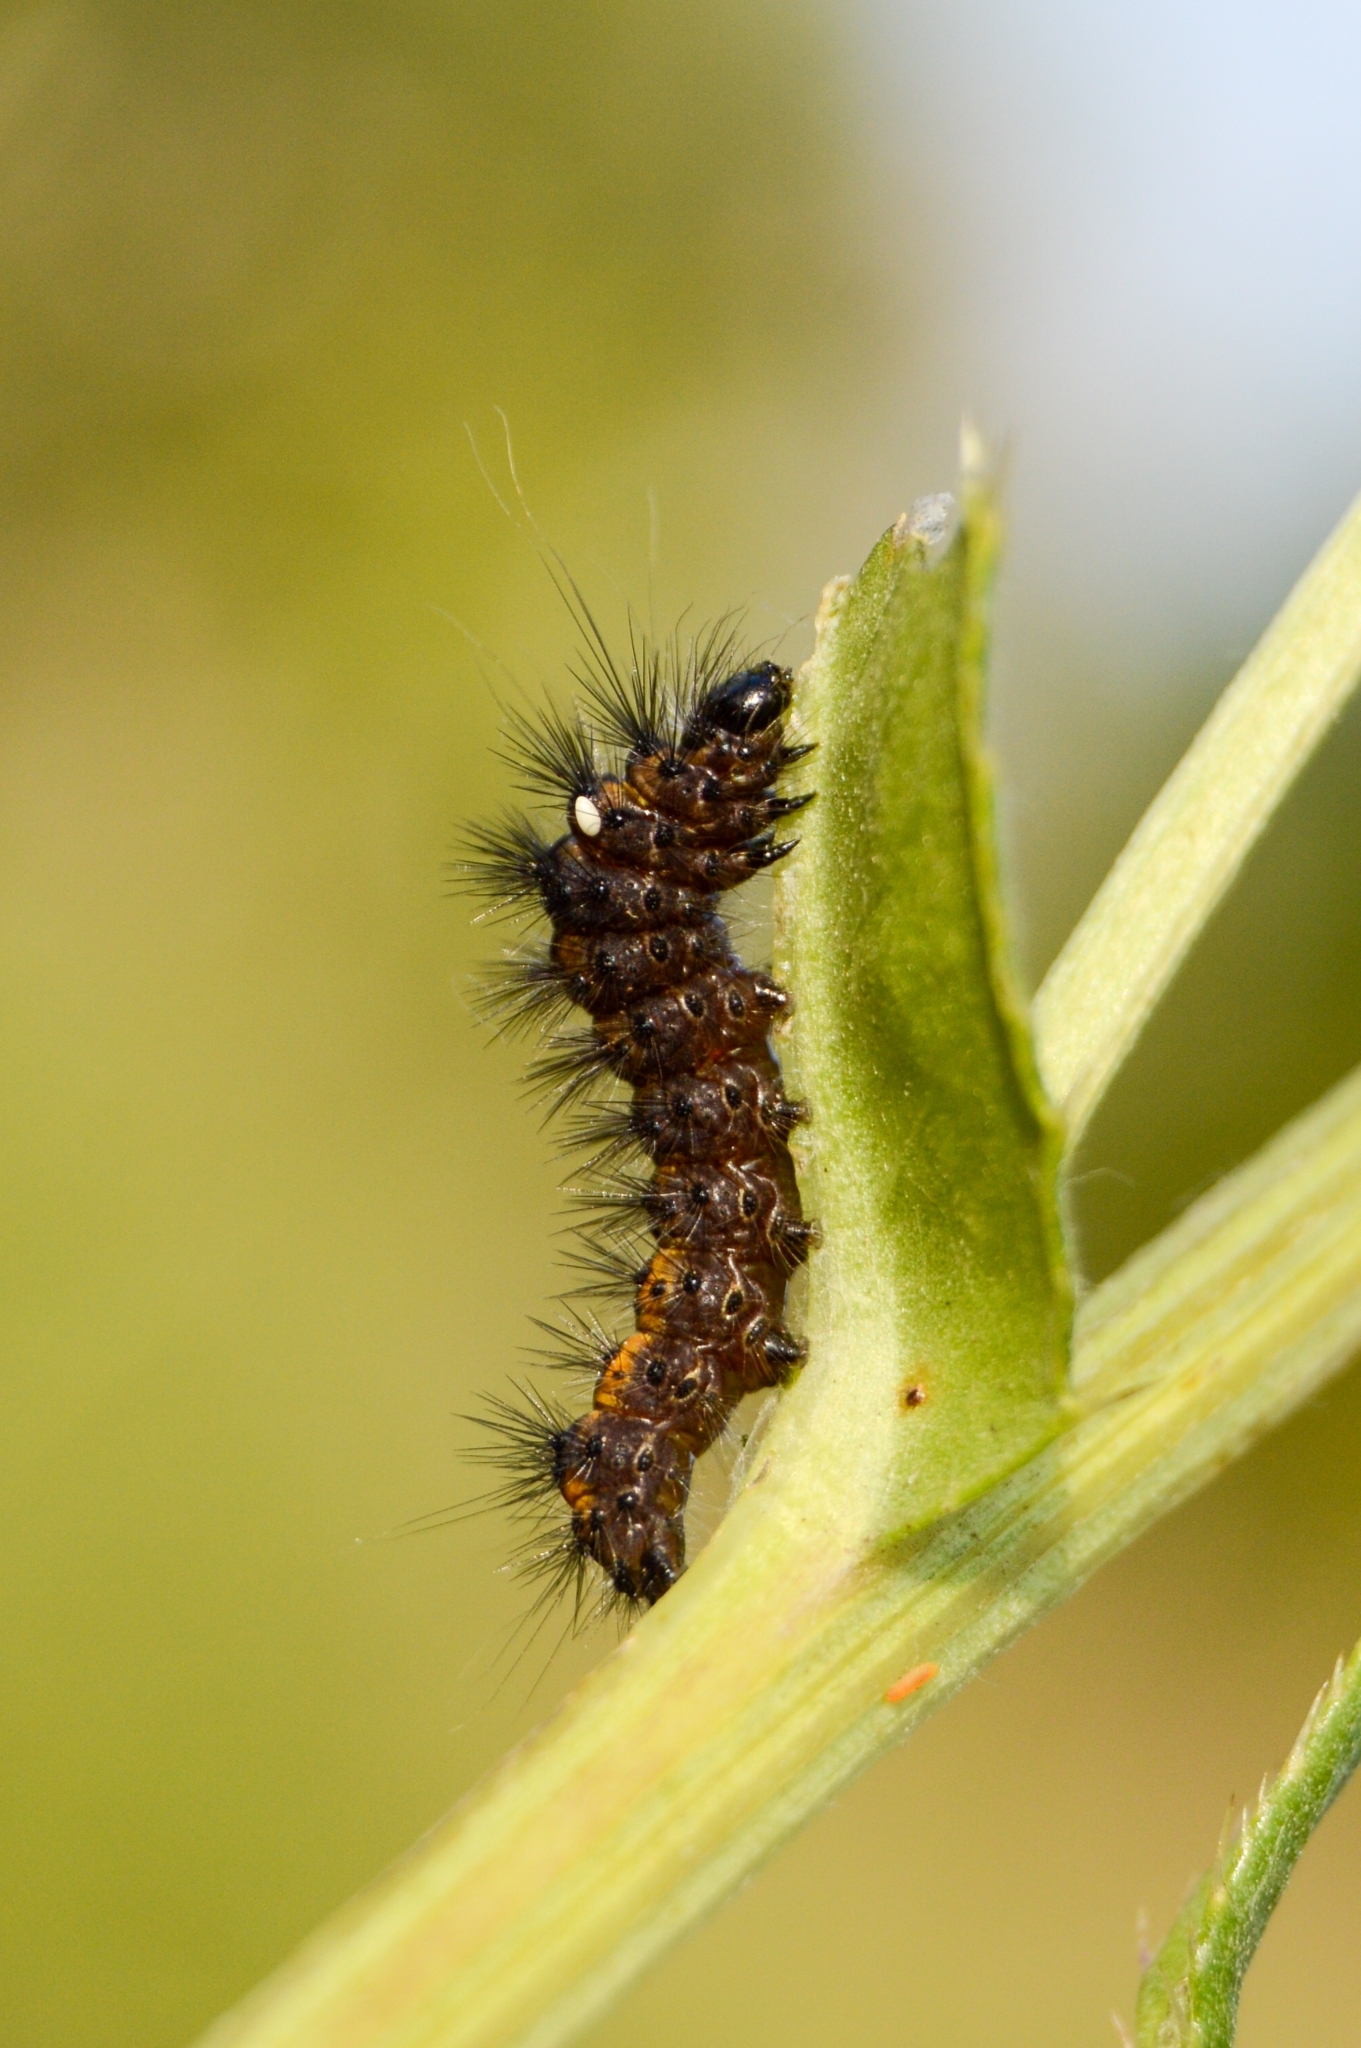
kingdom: Animalia
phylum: Arthropoda
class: Insecta
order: Lepidoptera
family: Noctuidae
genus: Acronicta
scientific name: Acronicta rumicis
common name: Knot grass
